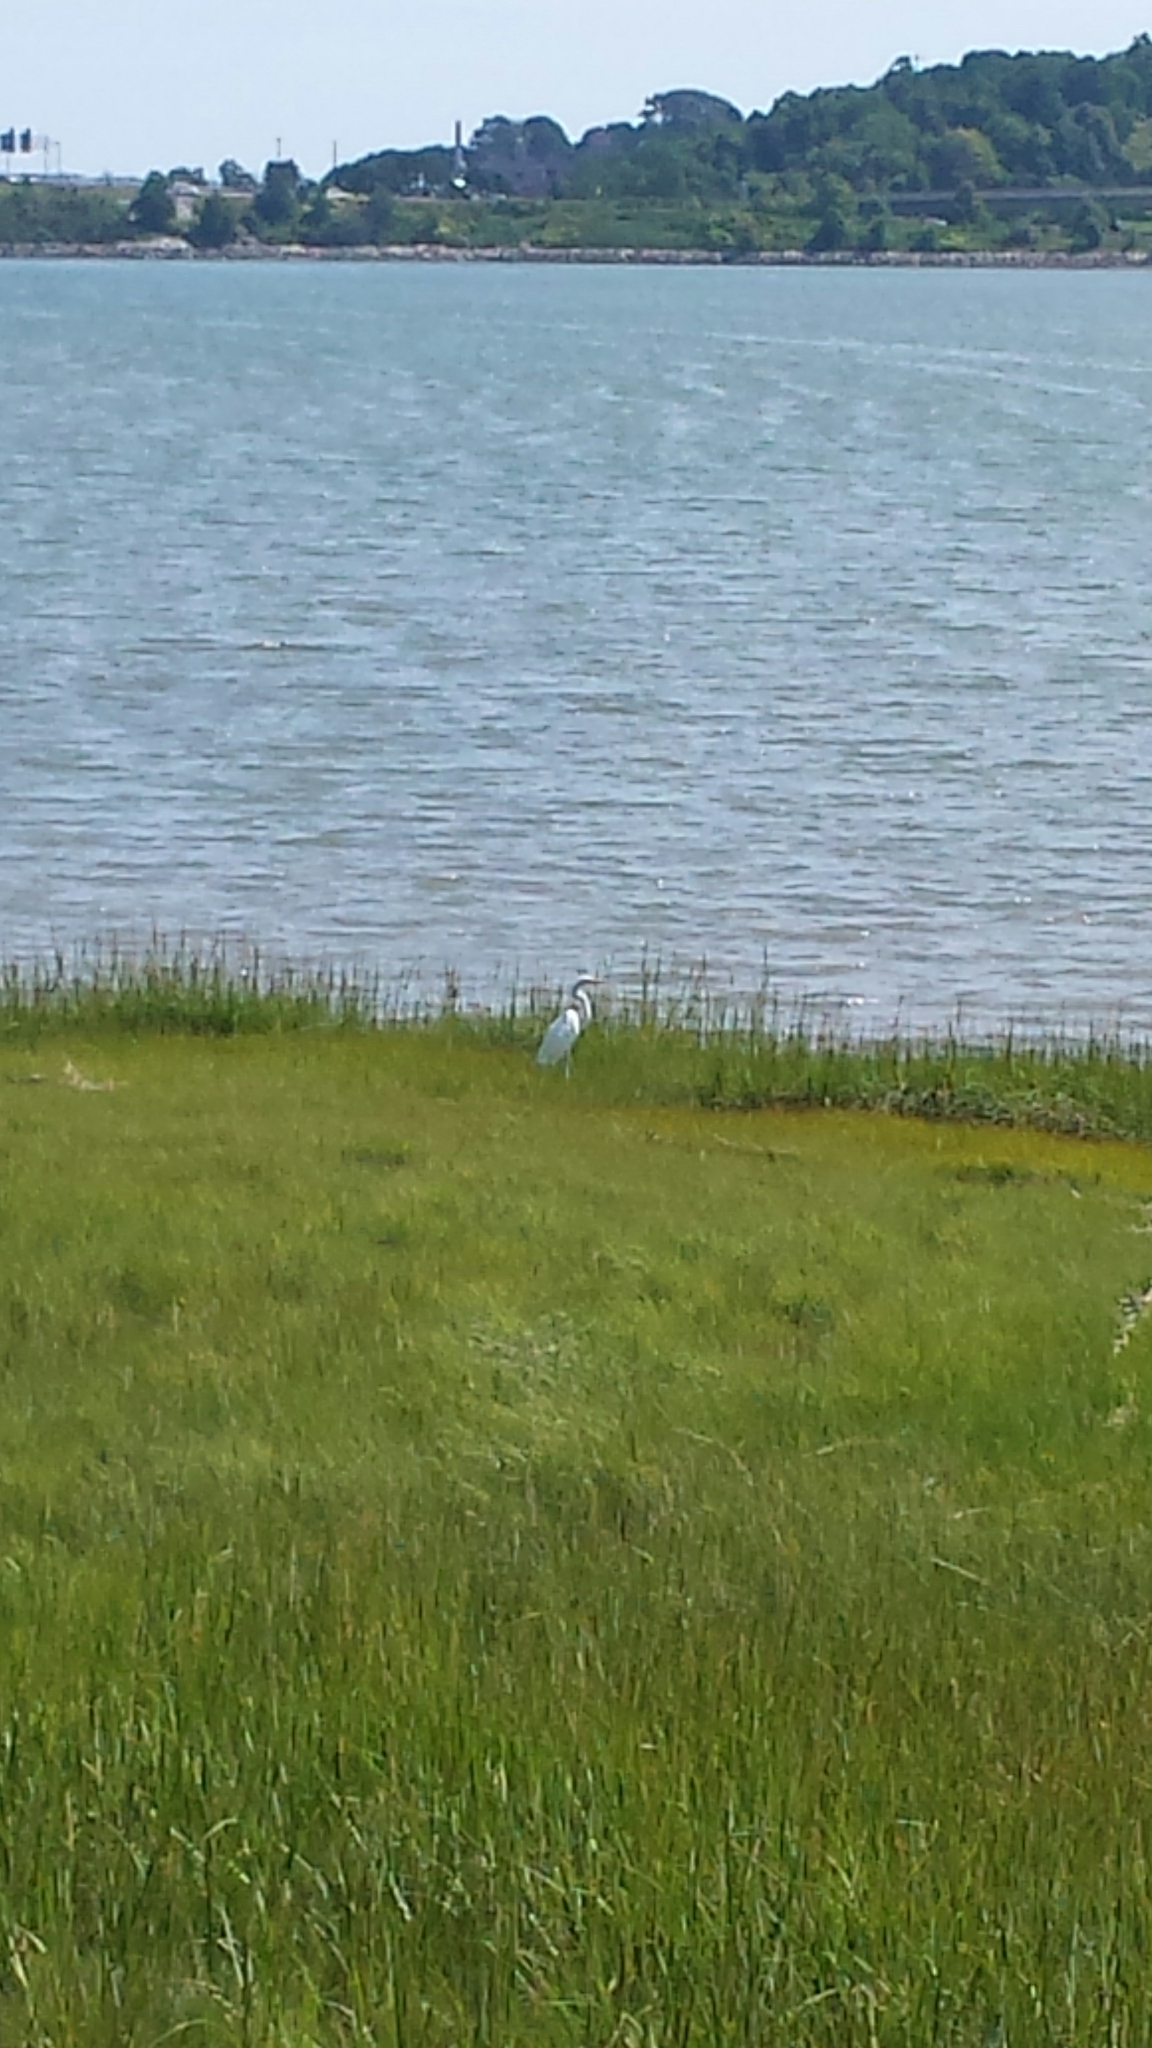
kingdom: Animalia
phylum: Chordata
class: Aves
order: Pelecaniformes
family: Ardeidae
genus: Ardea
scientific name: Ardea alba
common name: Great egret
